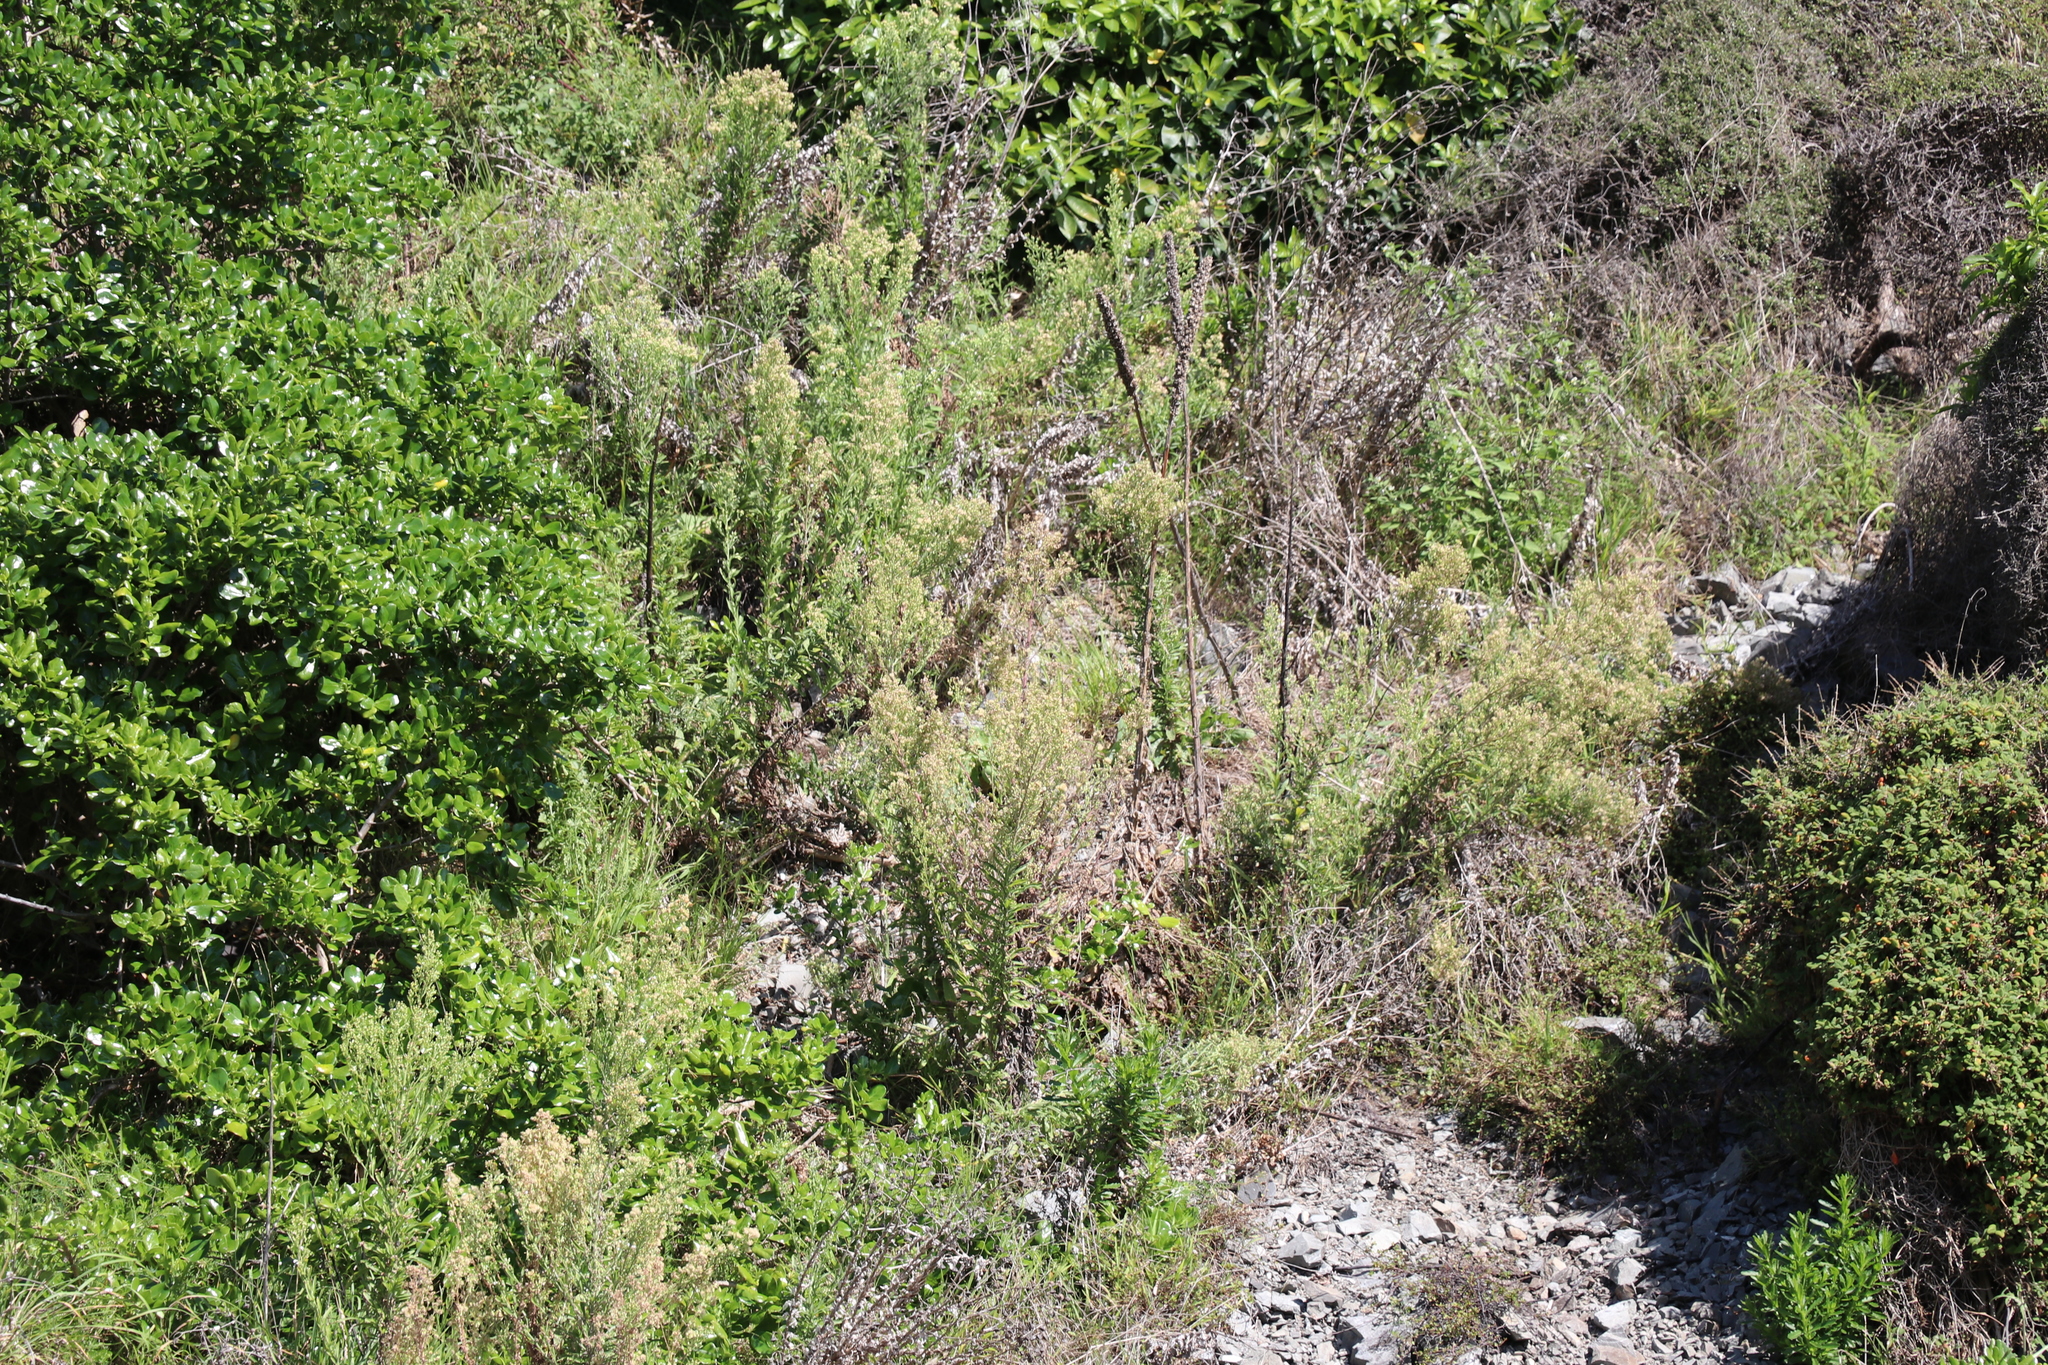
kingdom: Plantae
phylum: Tracheophyta
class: Magnoliopsida
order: Asterales
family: Asteraceae
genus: Erigeron
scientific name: Erigeron sumatrensis
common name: Daisy
